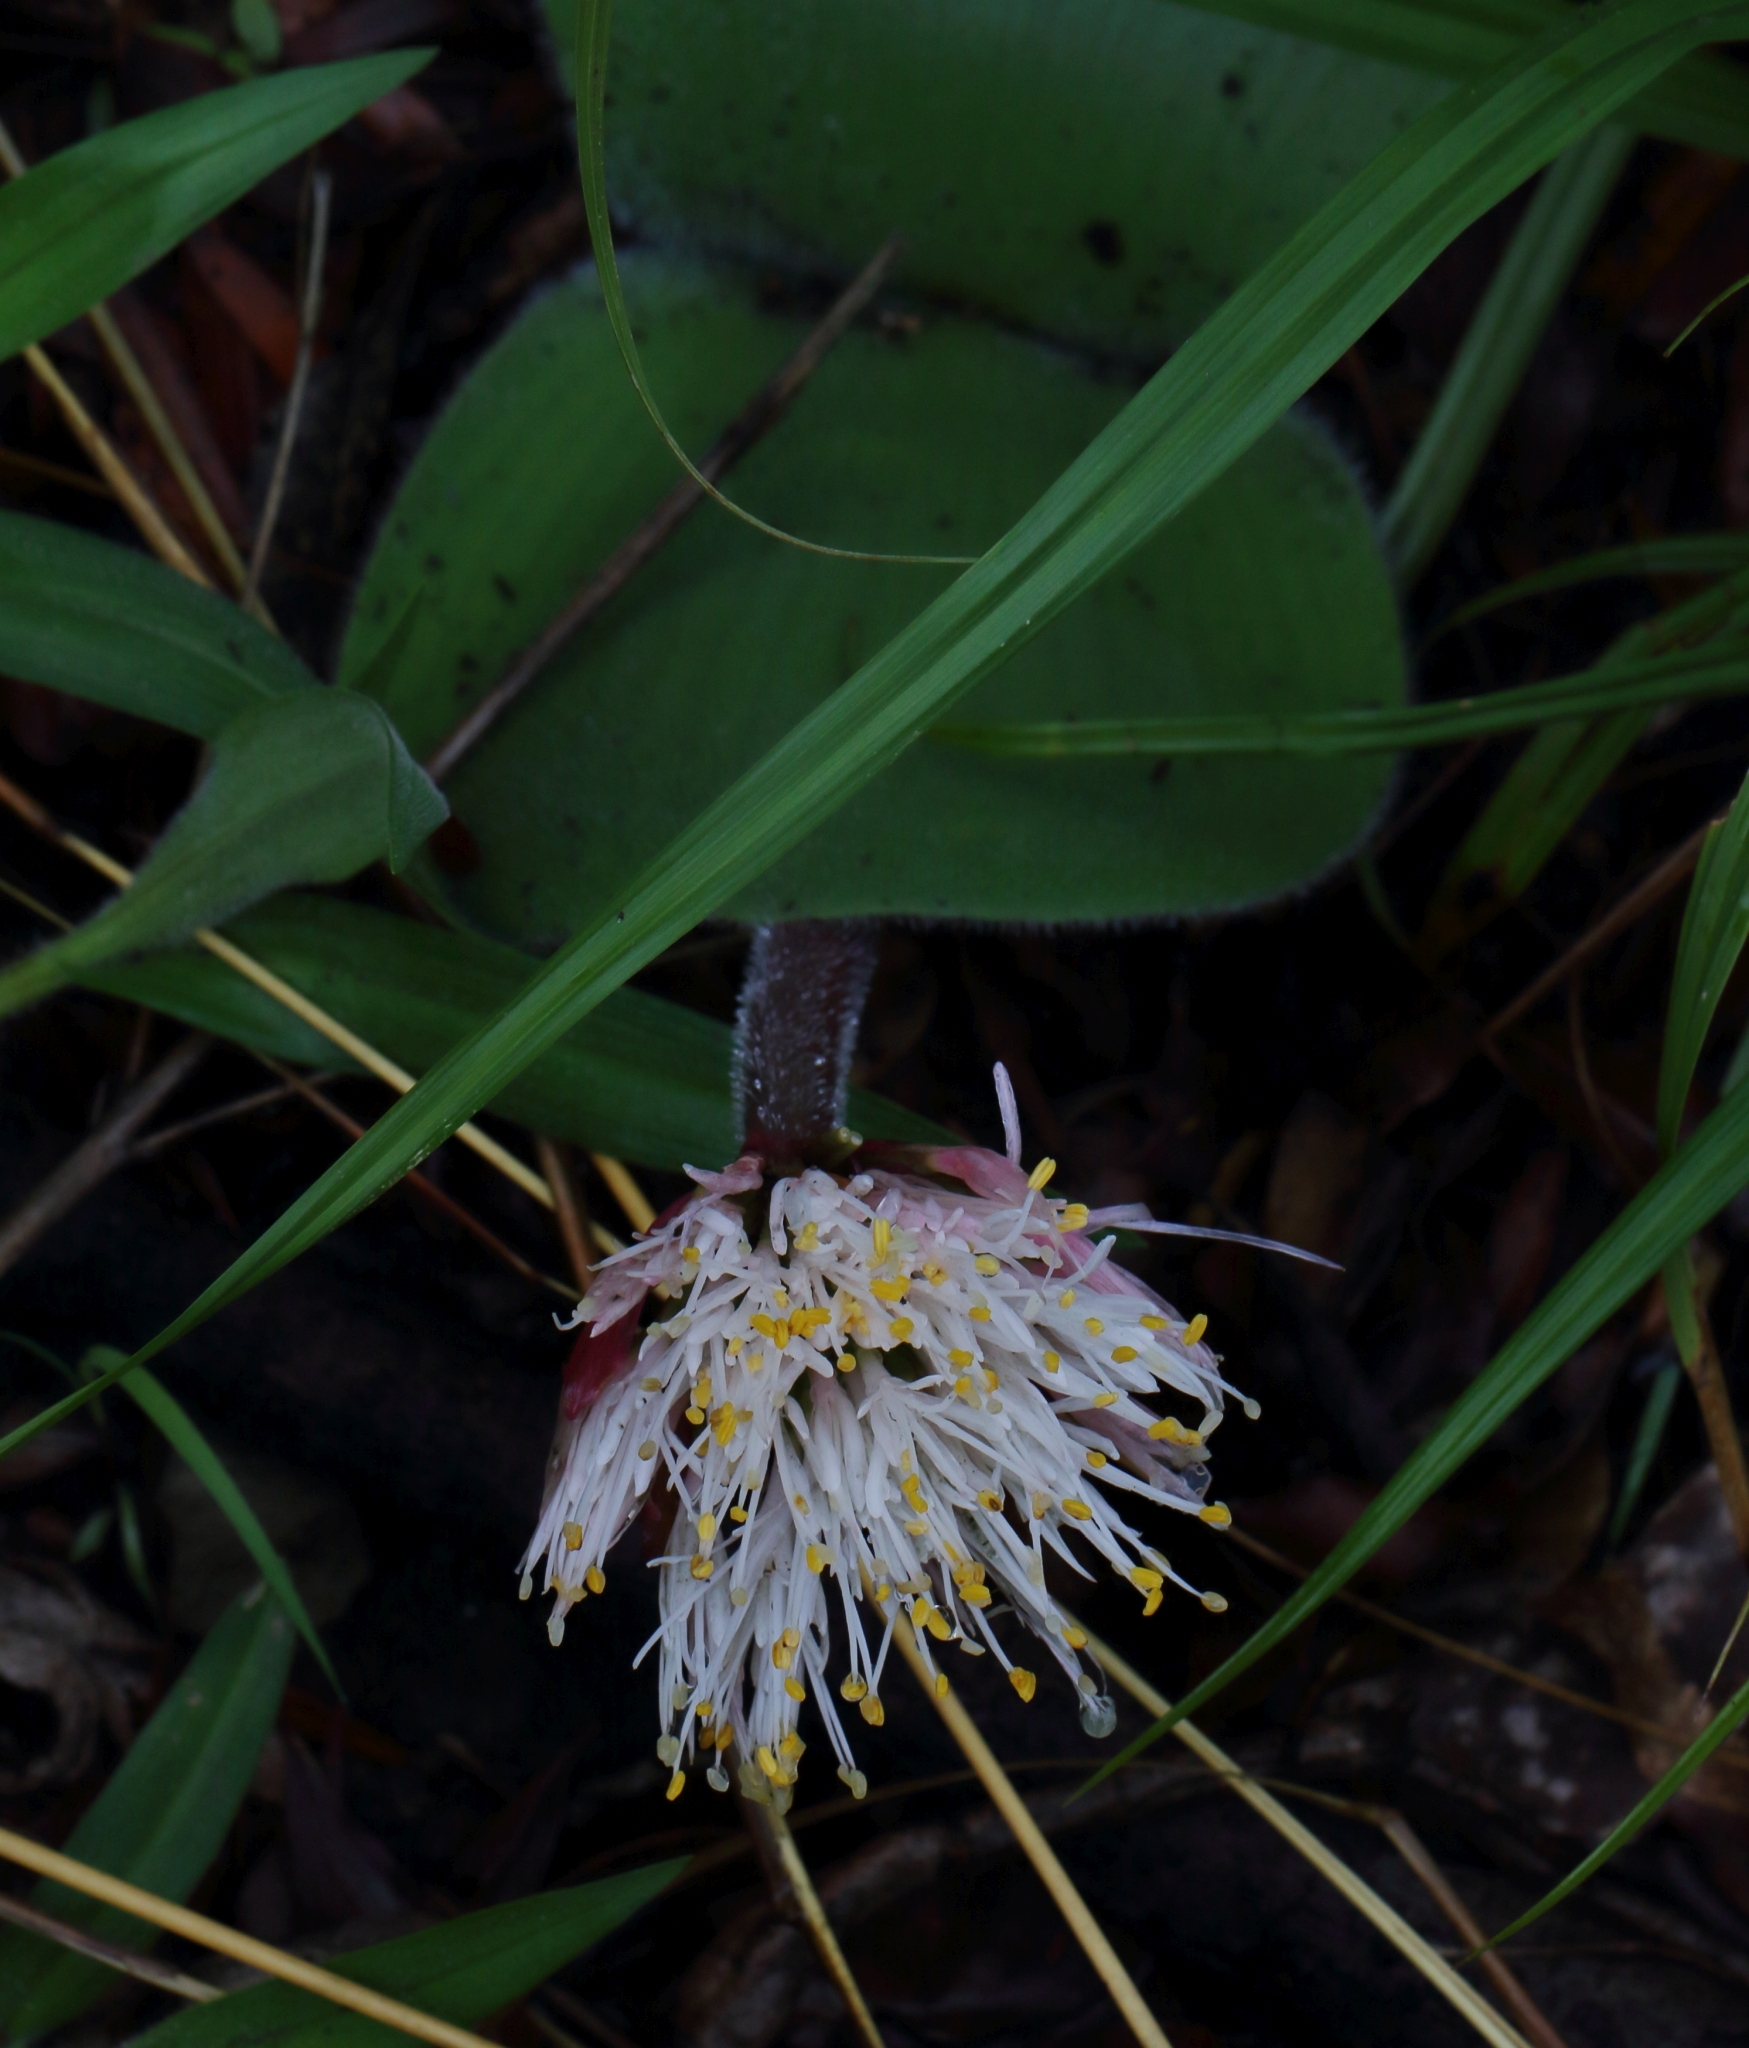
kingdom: Plantae
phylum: Tracheophyta
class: Liliopsida
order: Asparagales
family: Amaryllidaceae
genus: Haemanthus
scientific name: Haemanthus humilis
